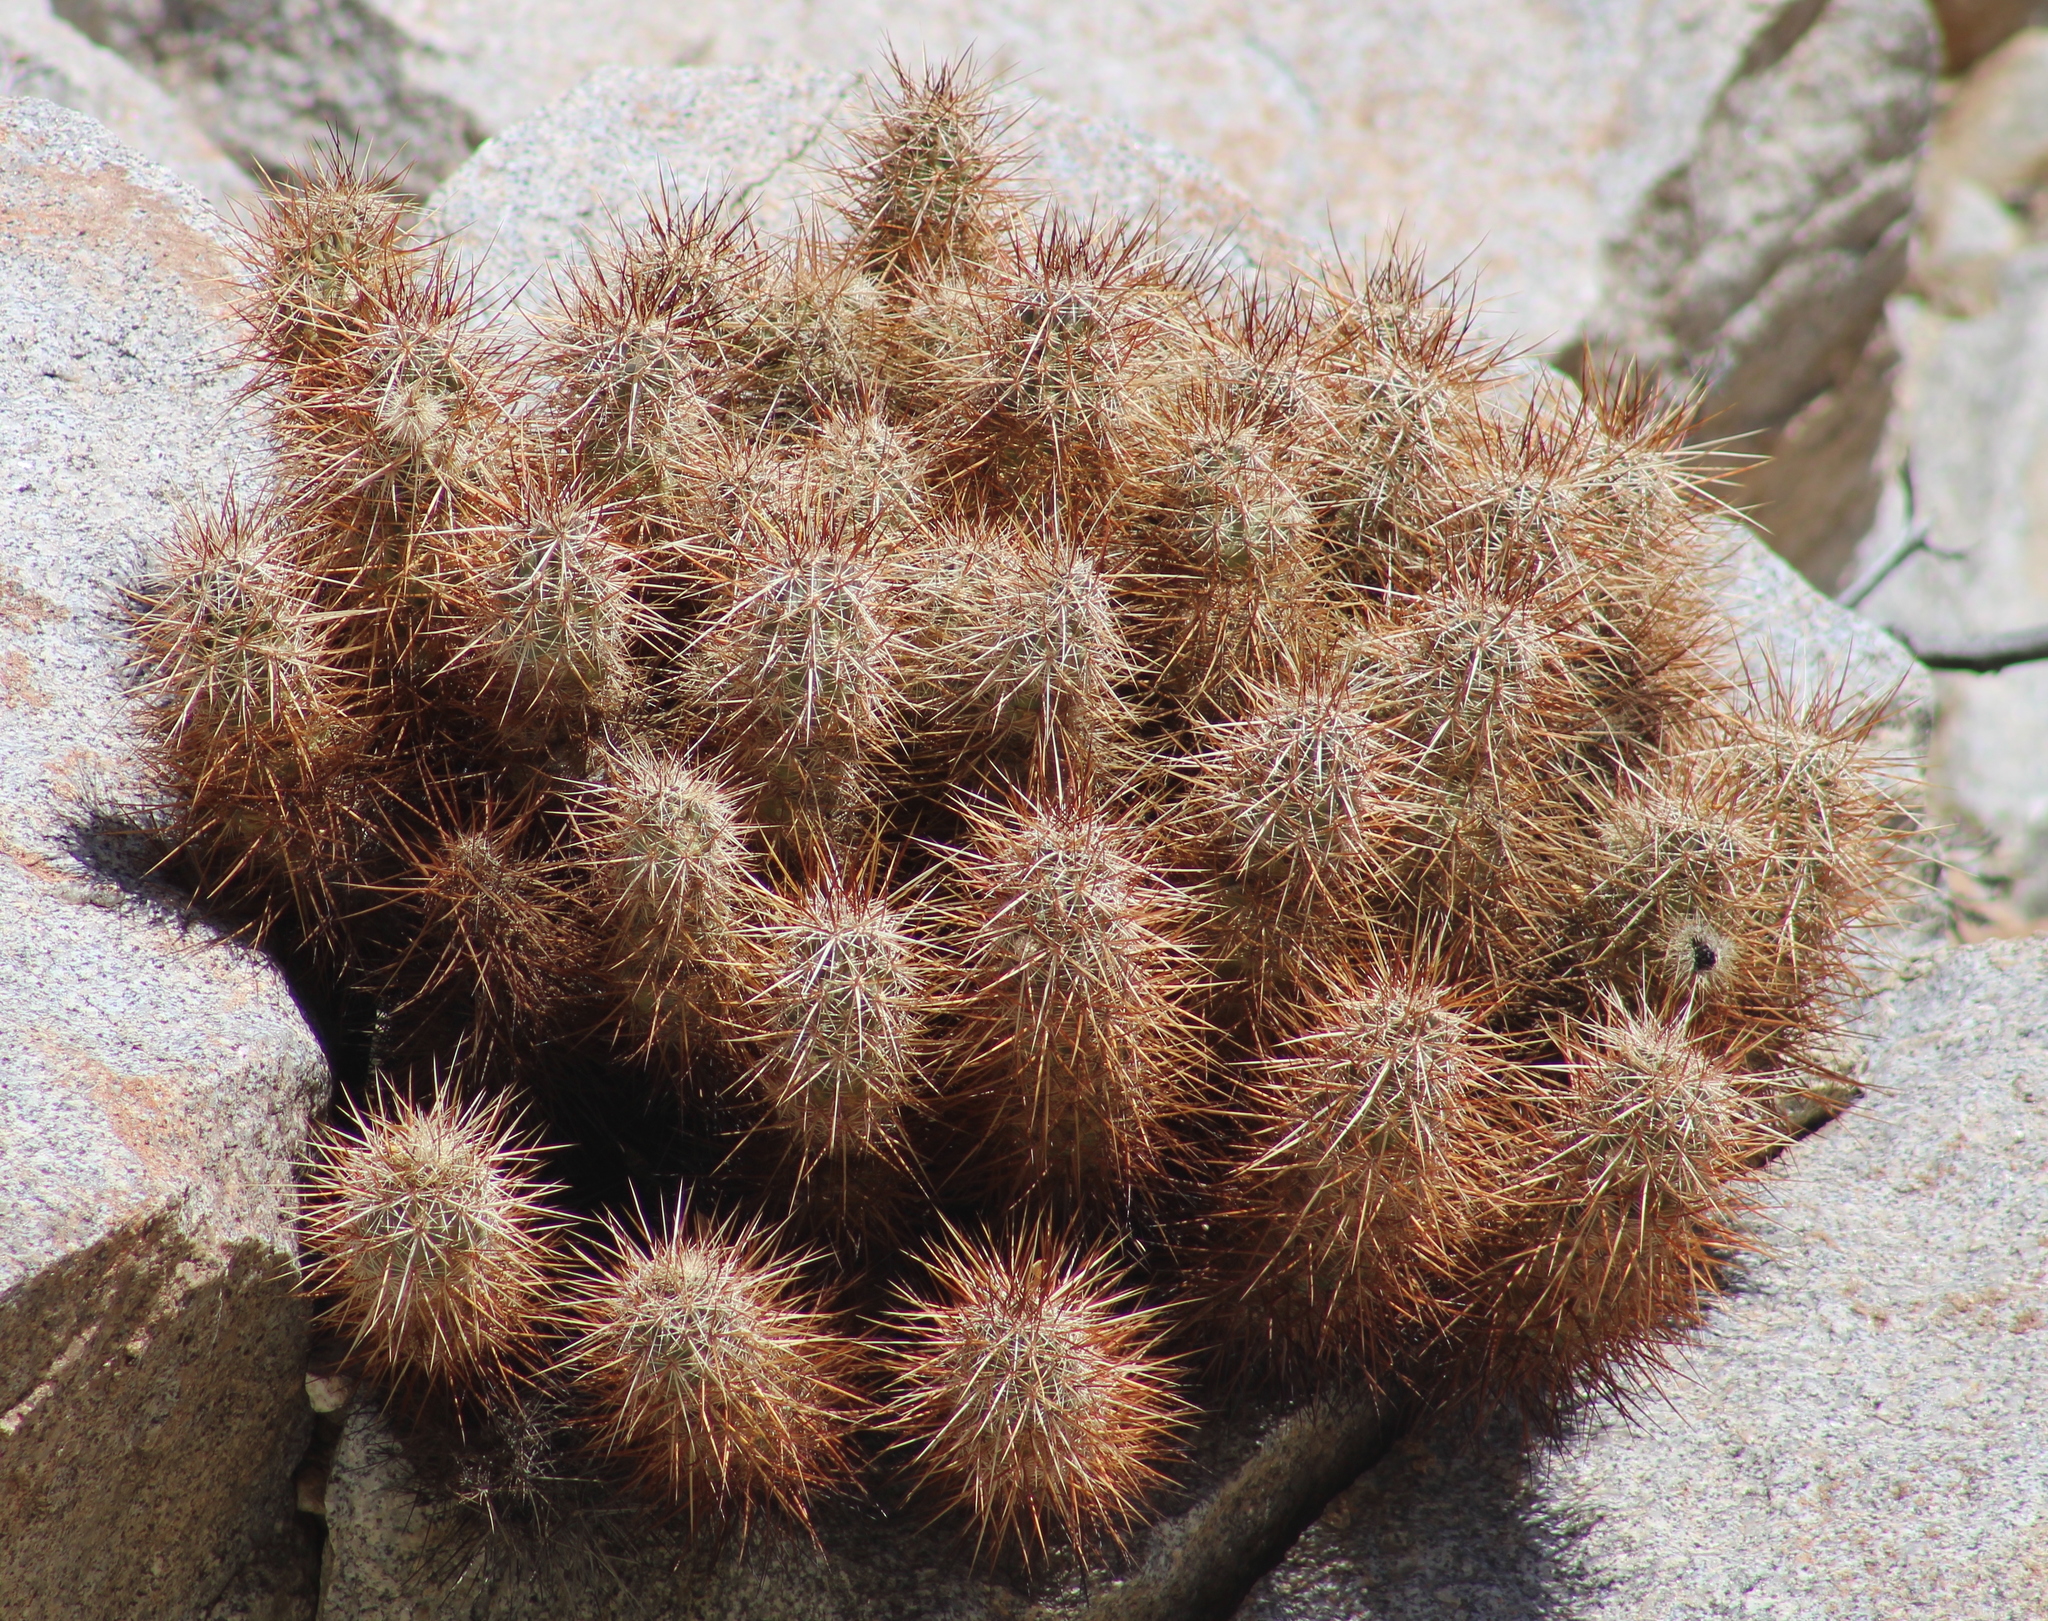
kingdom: Plantae
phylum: Tracheophyta
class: Magnoliopsida
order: Caryophyllales
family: Cactaceae
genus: Echinocereus
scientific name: Echinocereus engelmannii
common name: Engelmann's hedgehog cactus
